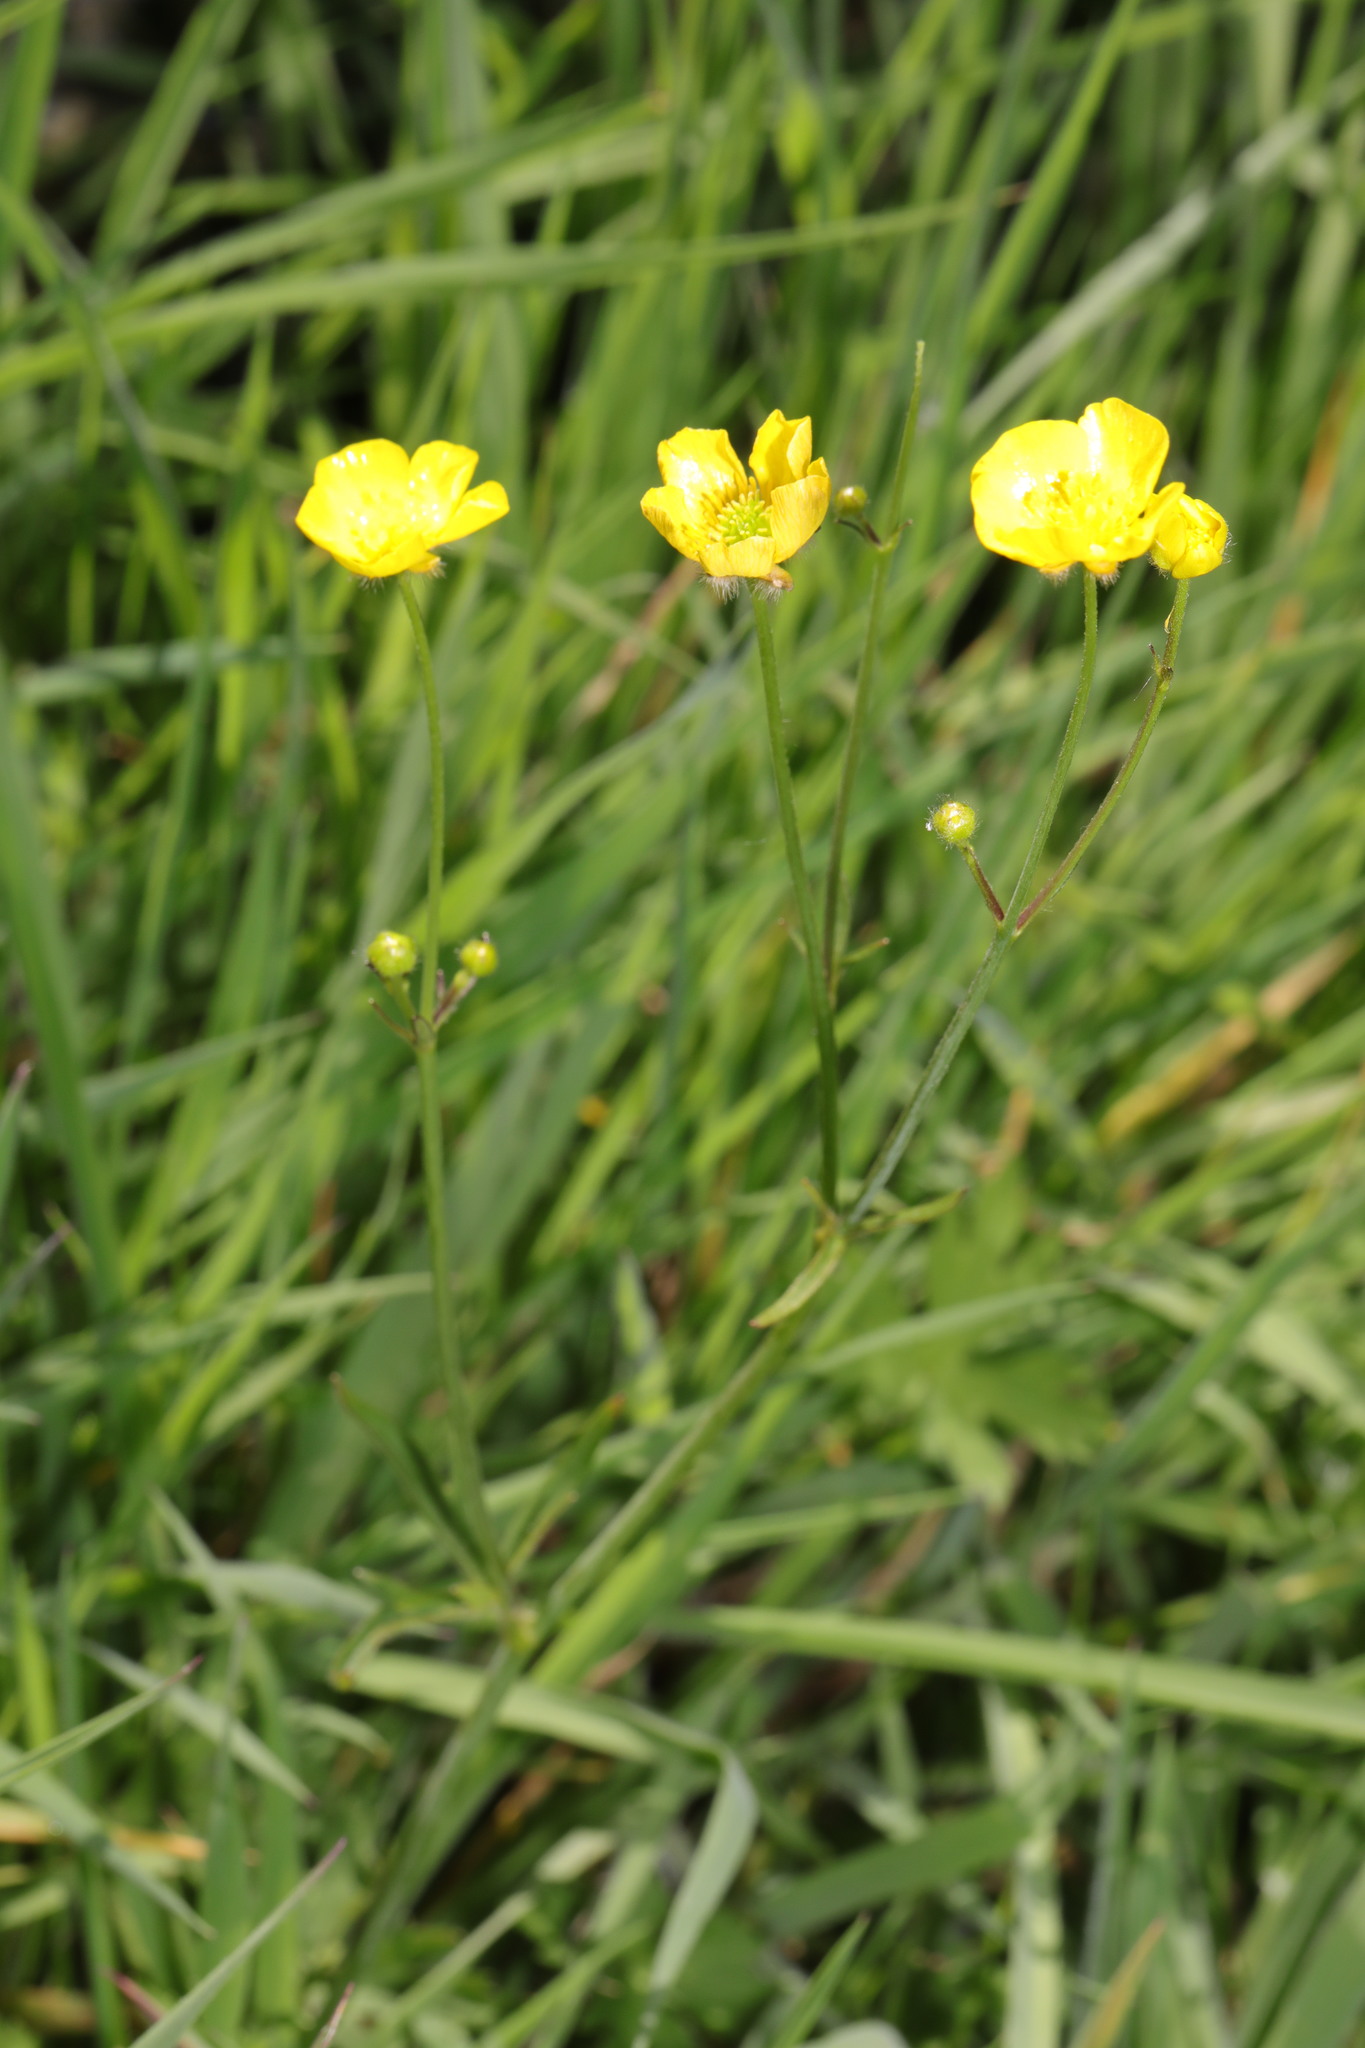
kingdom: Plantae
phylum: Tracheophyta
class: Magnoliopsida
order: Ranunculales
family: Ranunculaceae
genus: Ranunculus
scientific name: Ranunculus acris
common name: Meadow buttercup
